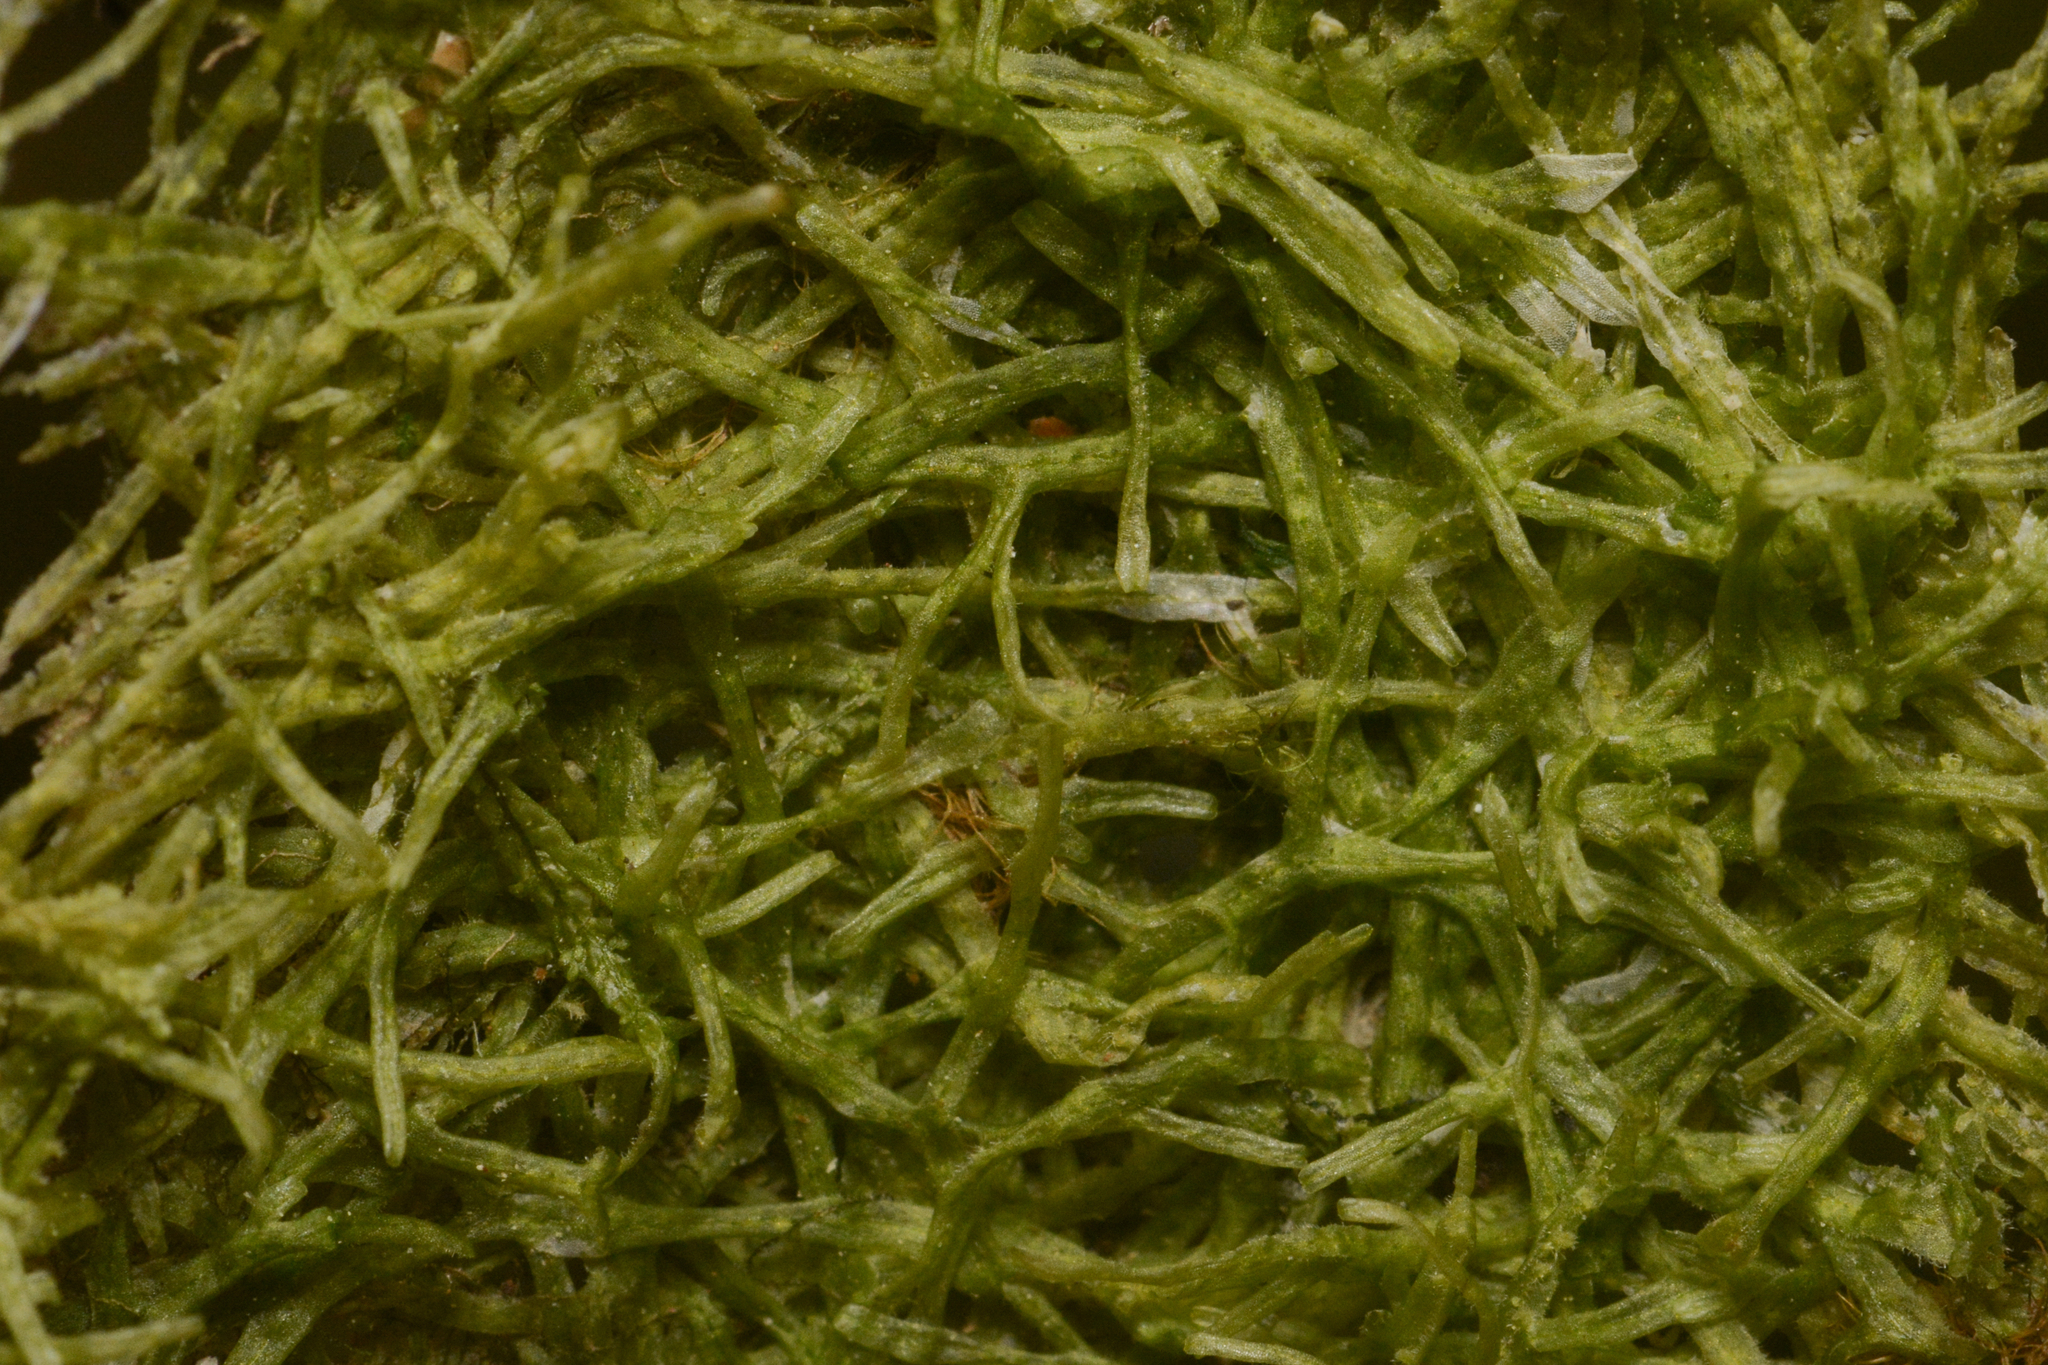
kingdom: Plantae
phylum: Marchantiophyta
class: Jungermanniopsida
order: Metzgeriales
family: Metzgeriaceae
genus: Metzgeria
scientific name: Metzgeria conjugata
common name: Rock veilwort
